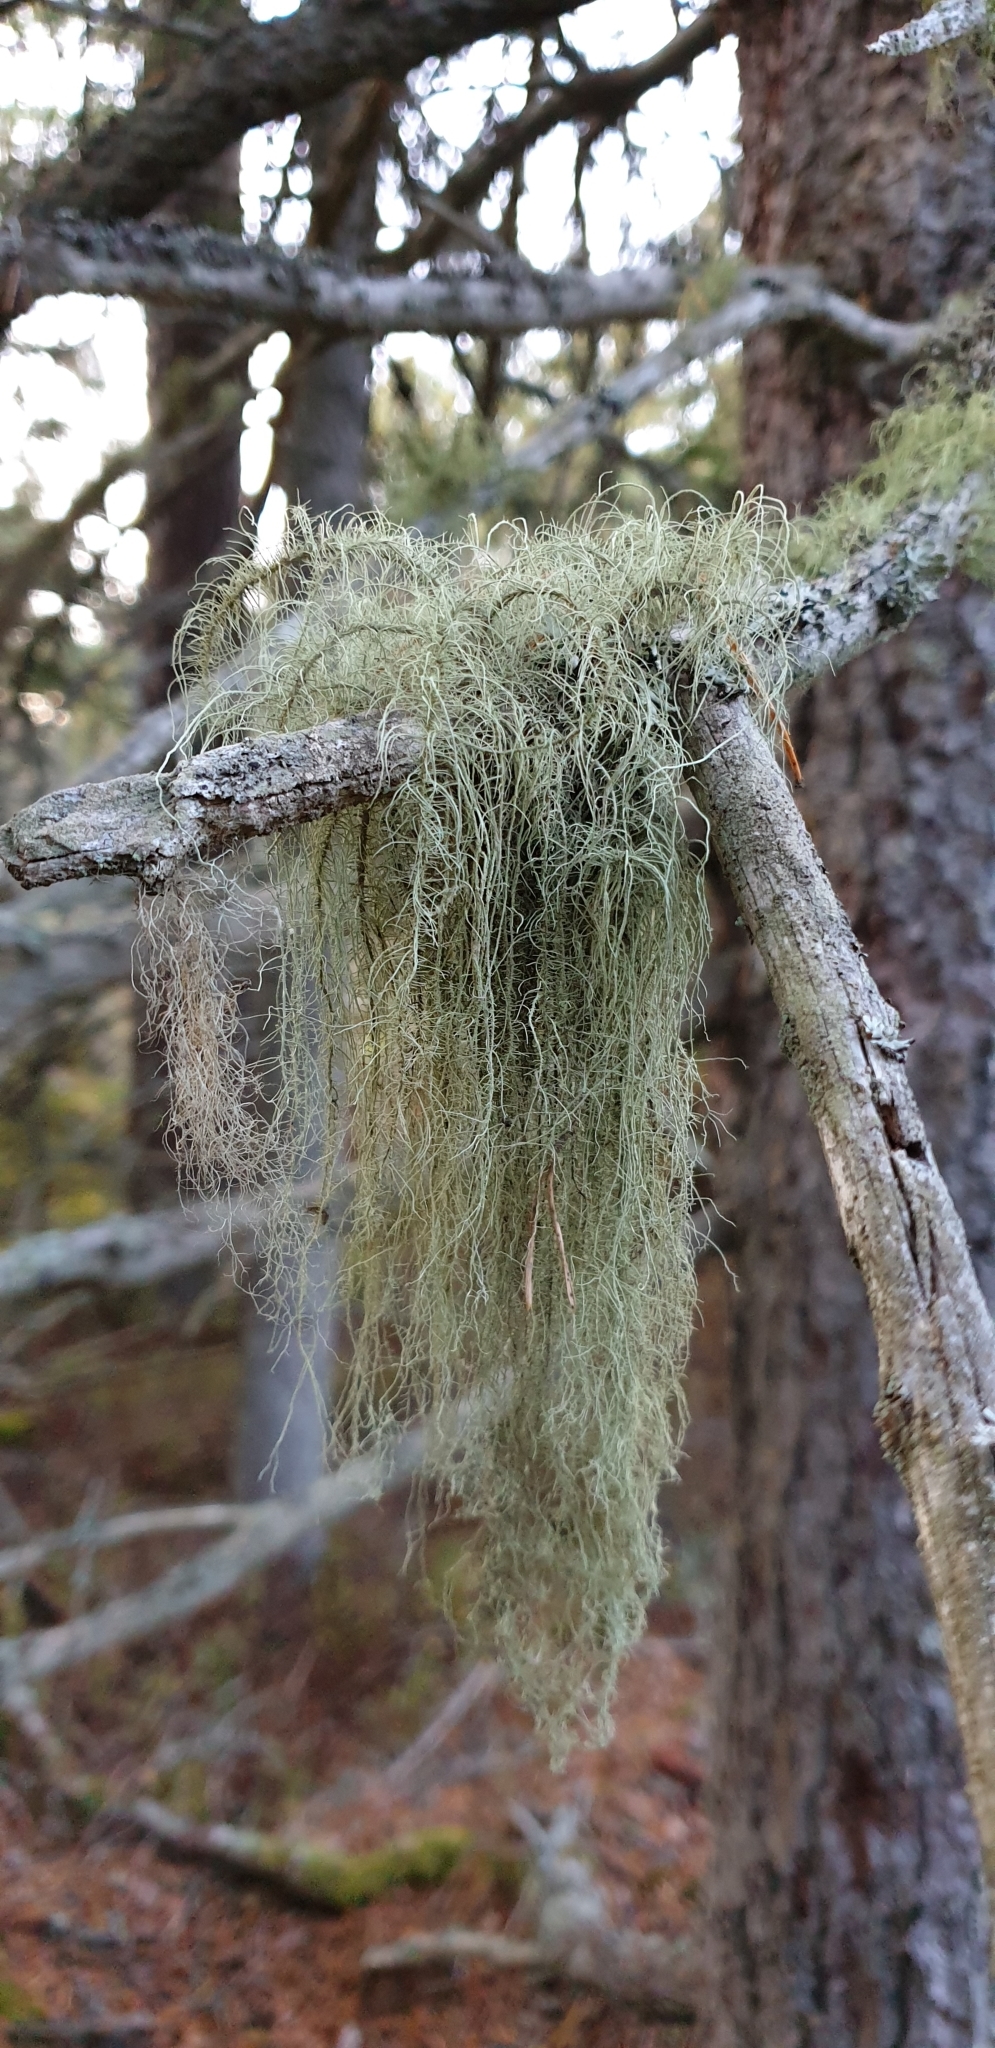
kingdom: Fungi
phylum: Ascomycota
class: Lecanoromycetes
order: Lecanorales
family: Parmeliaceae
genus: Usnea
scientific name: Usnea dasopoga
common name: Fishbone beard lichen
